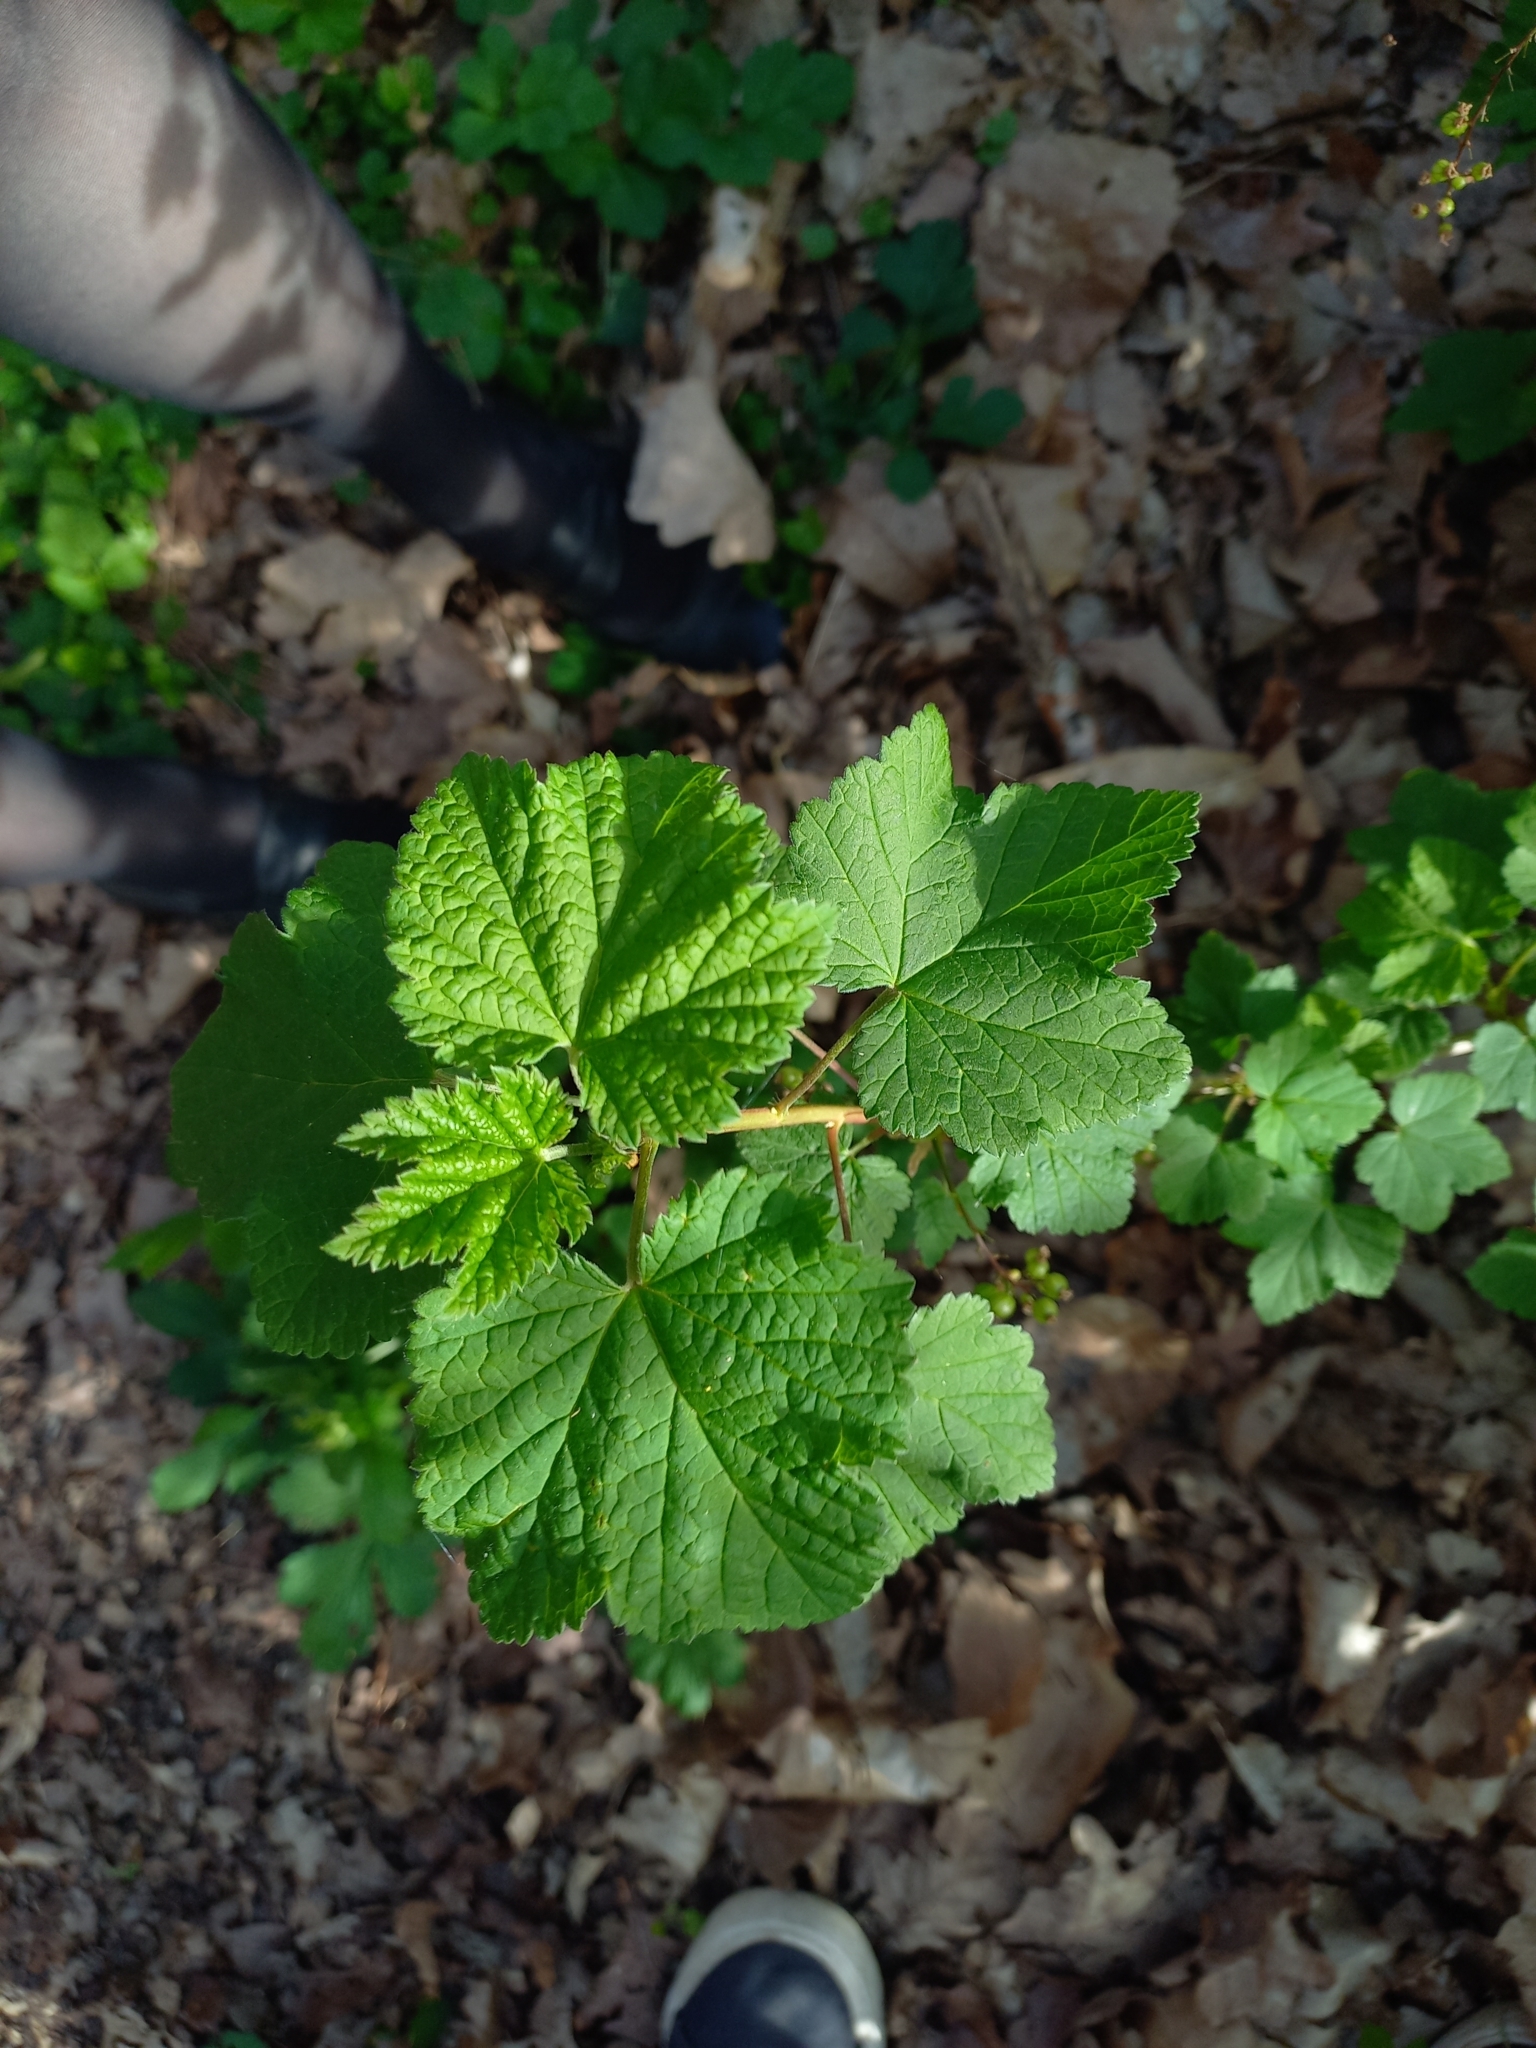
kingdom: Plantae
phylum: Tracheophyta
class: Magnoliopsida
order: Saxifragales
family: Grossulariaceae
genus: Ribes
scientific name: Ribes rubrum
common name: Red currant
